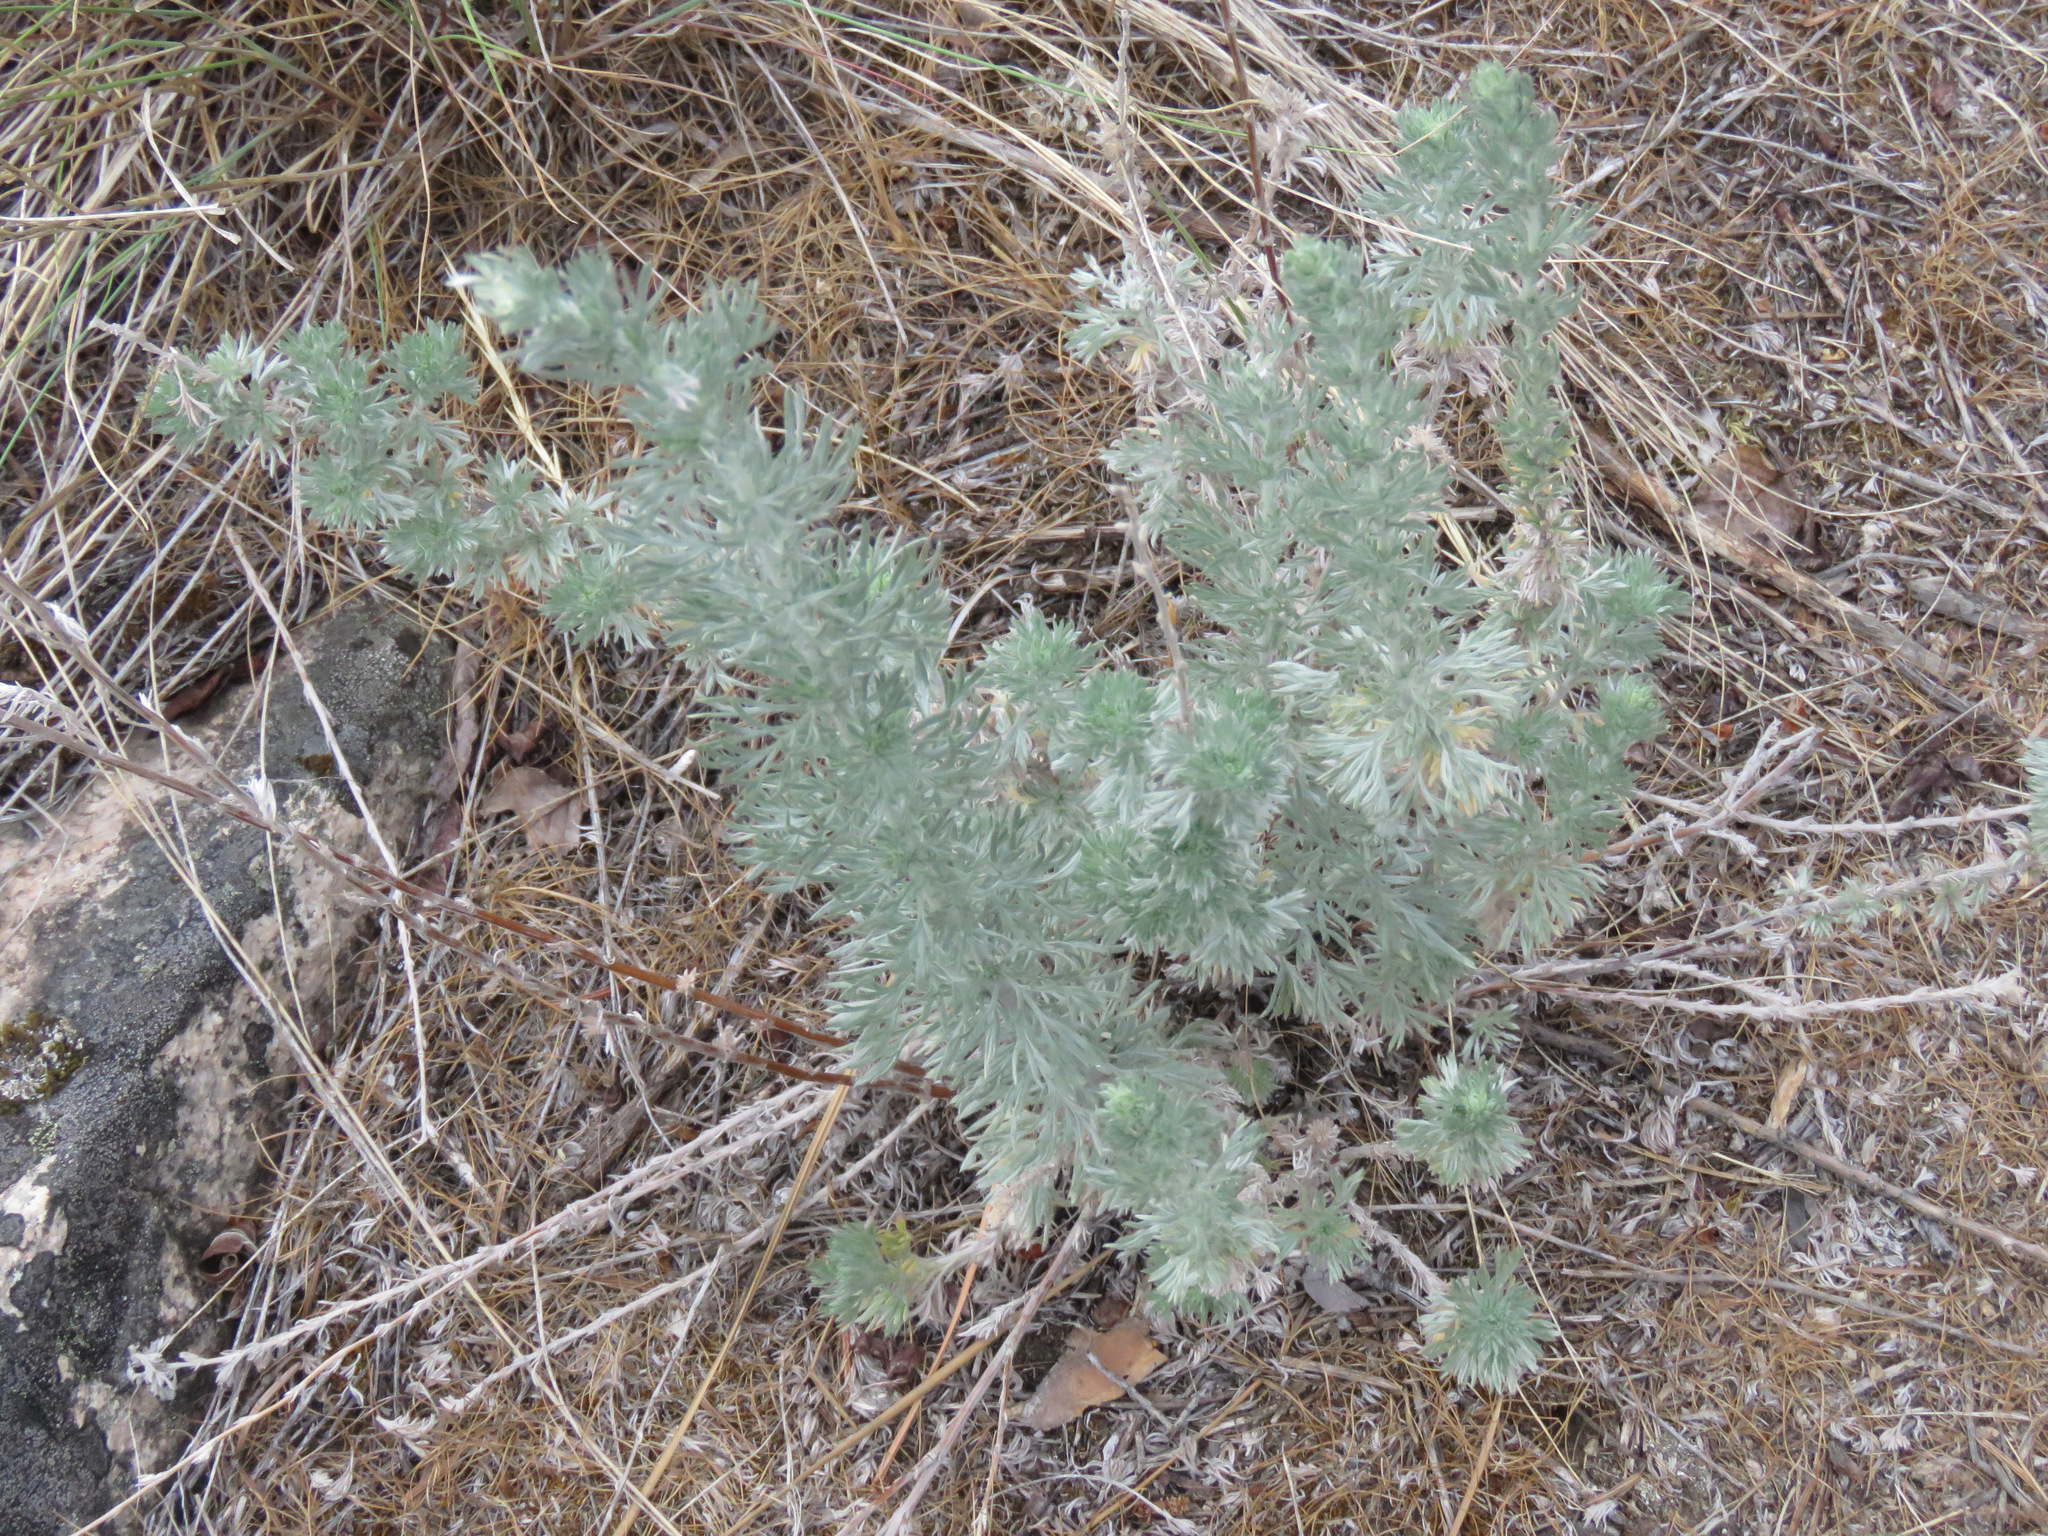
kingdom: Plantae
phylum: Tracheophyta
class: Magnoliopsida
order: Asterales
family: Asteraceae
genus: Artemisia
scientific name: Artemisia frigida
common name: Prairie sagewort
